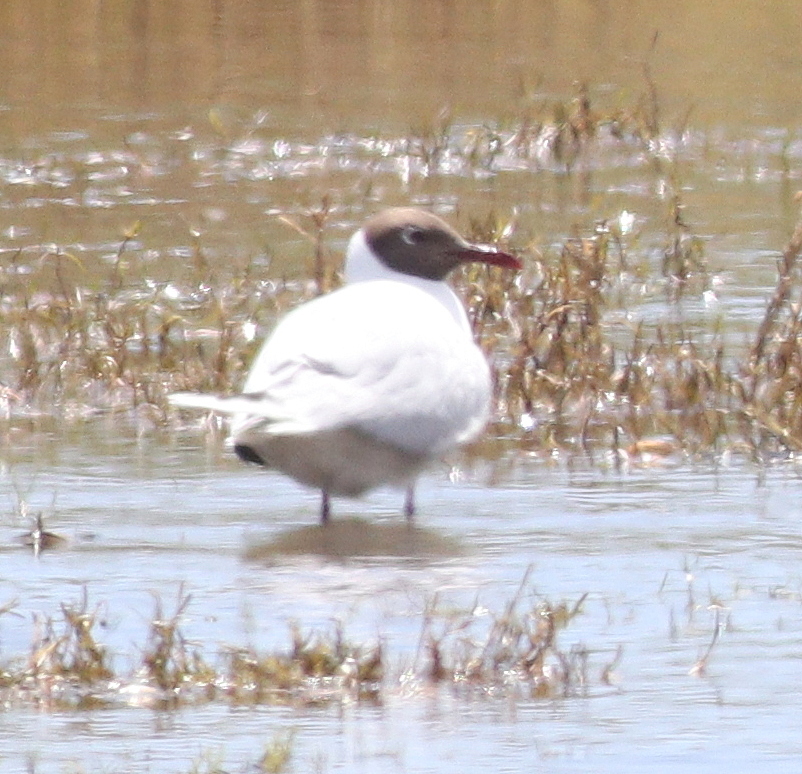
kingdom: Animalia
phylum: Chordata
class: Aves
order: Charadriiformes
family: Laridae
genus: Chroicocephalus
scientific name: Chroicocephalus maculipennis
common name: Brown-hooded gull
